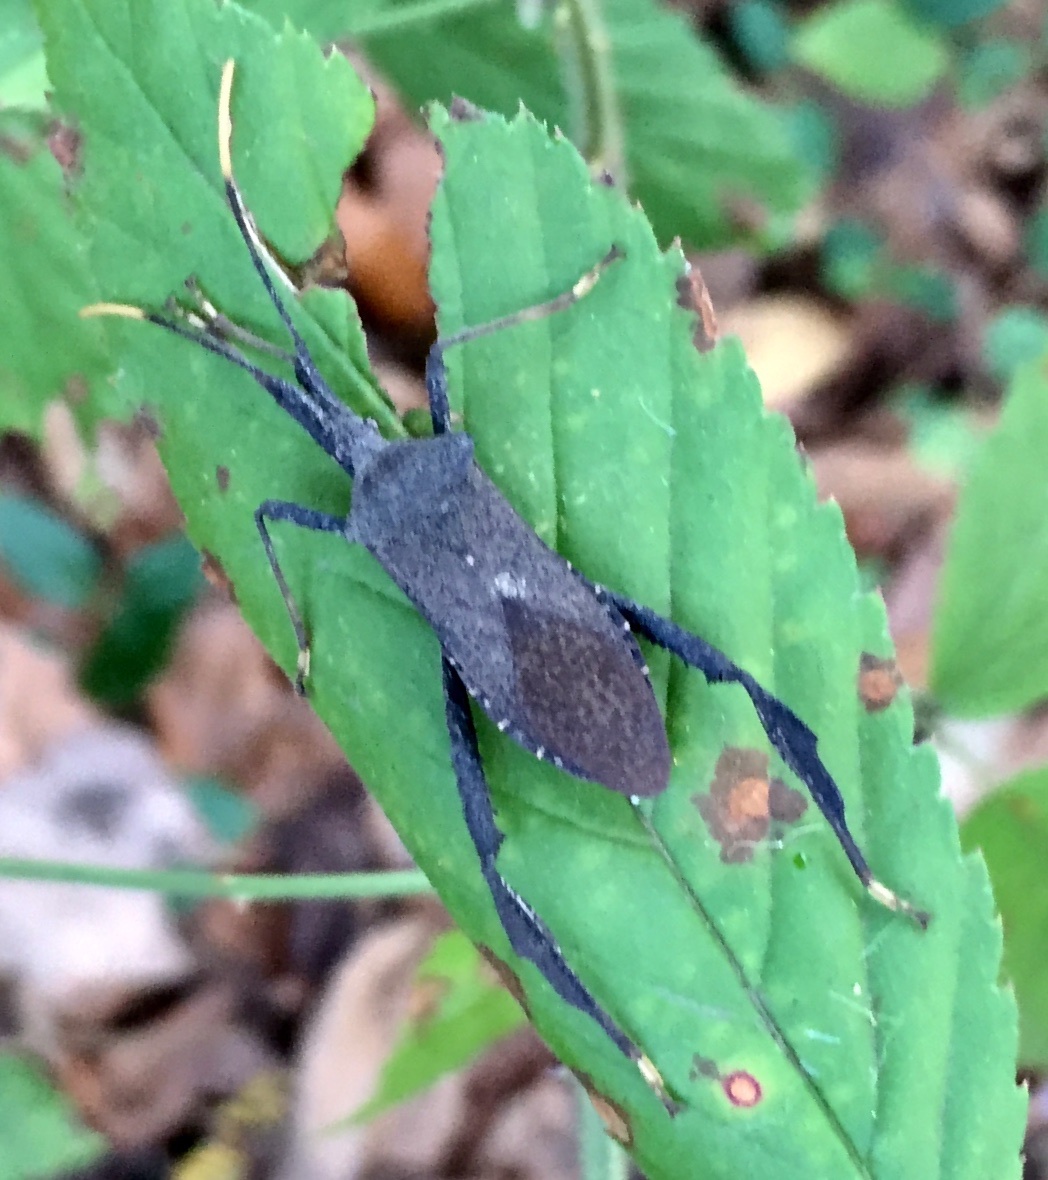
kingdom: Animalia
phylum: Arthropoda
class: Insecta
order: Hemiptera
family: Coreidae
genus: Acanthocephala
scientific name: Acanthocephala terminalis
